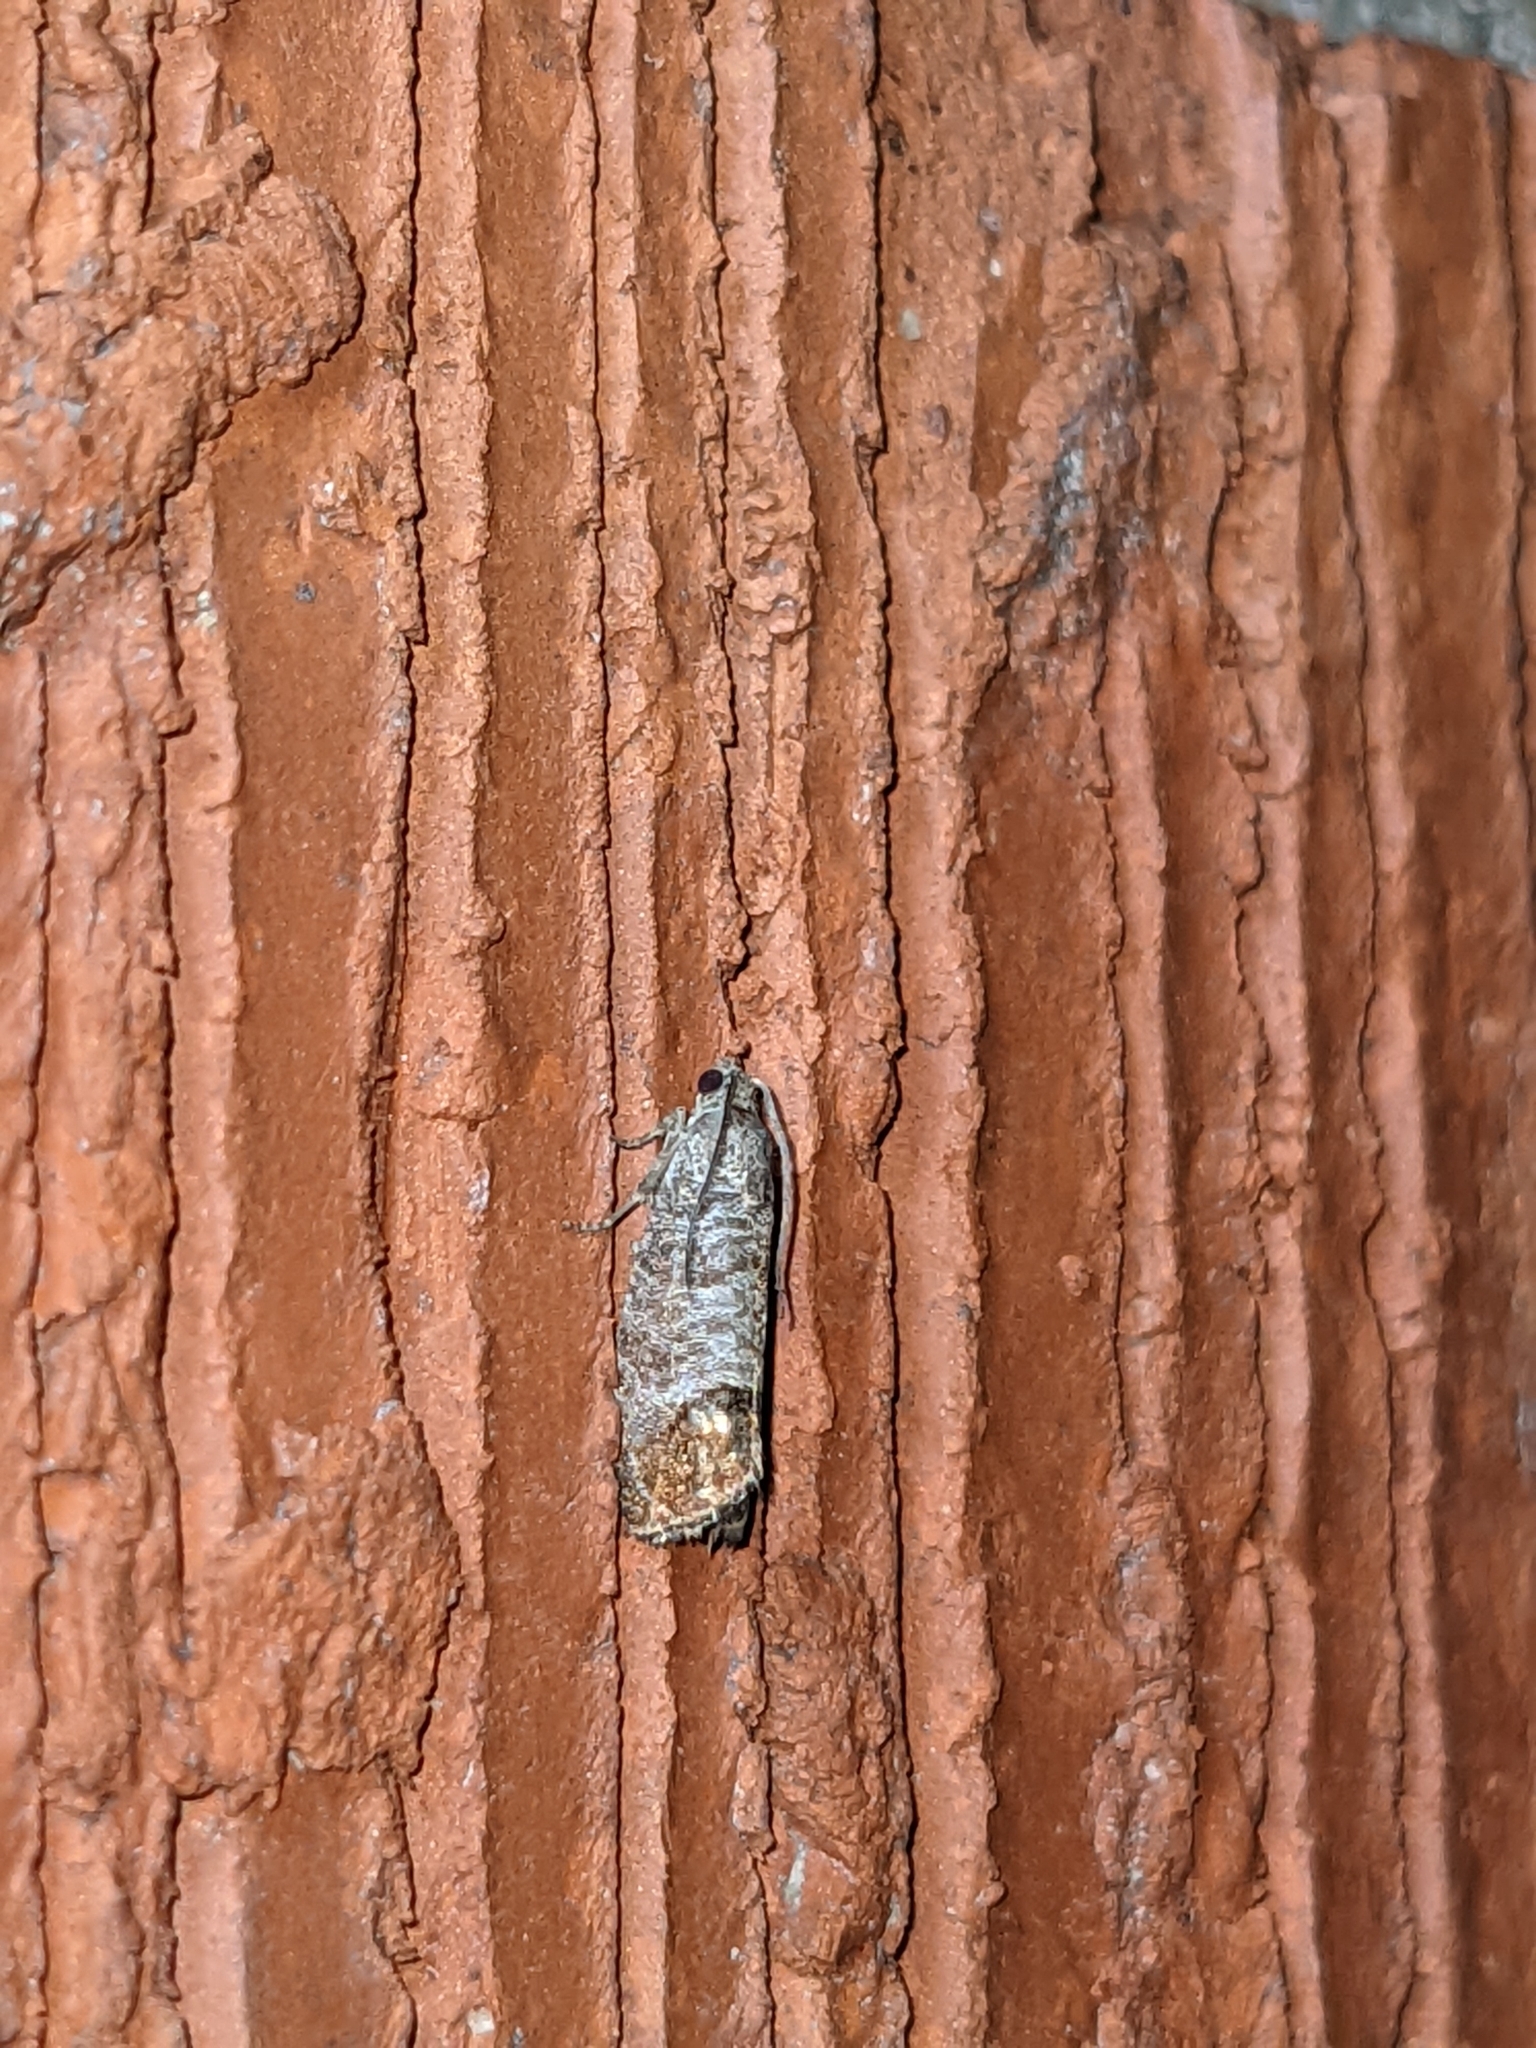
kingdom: Animalia
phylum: Arthropoda
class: Insecta
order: Lepidoptera
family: Tortricidae
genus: Cydia
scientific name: Cydia pomonella
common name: Codling moth
